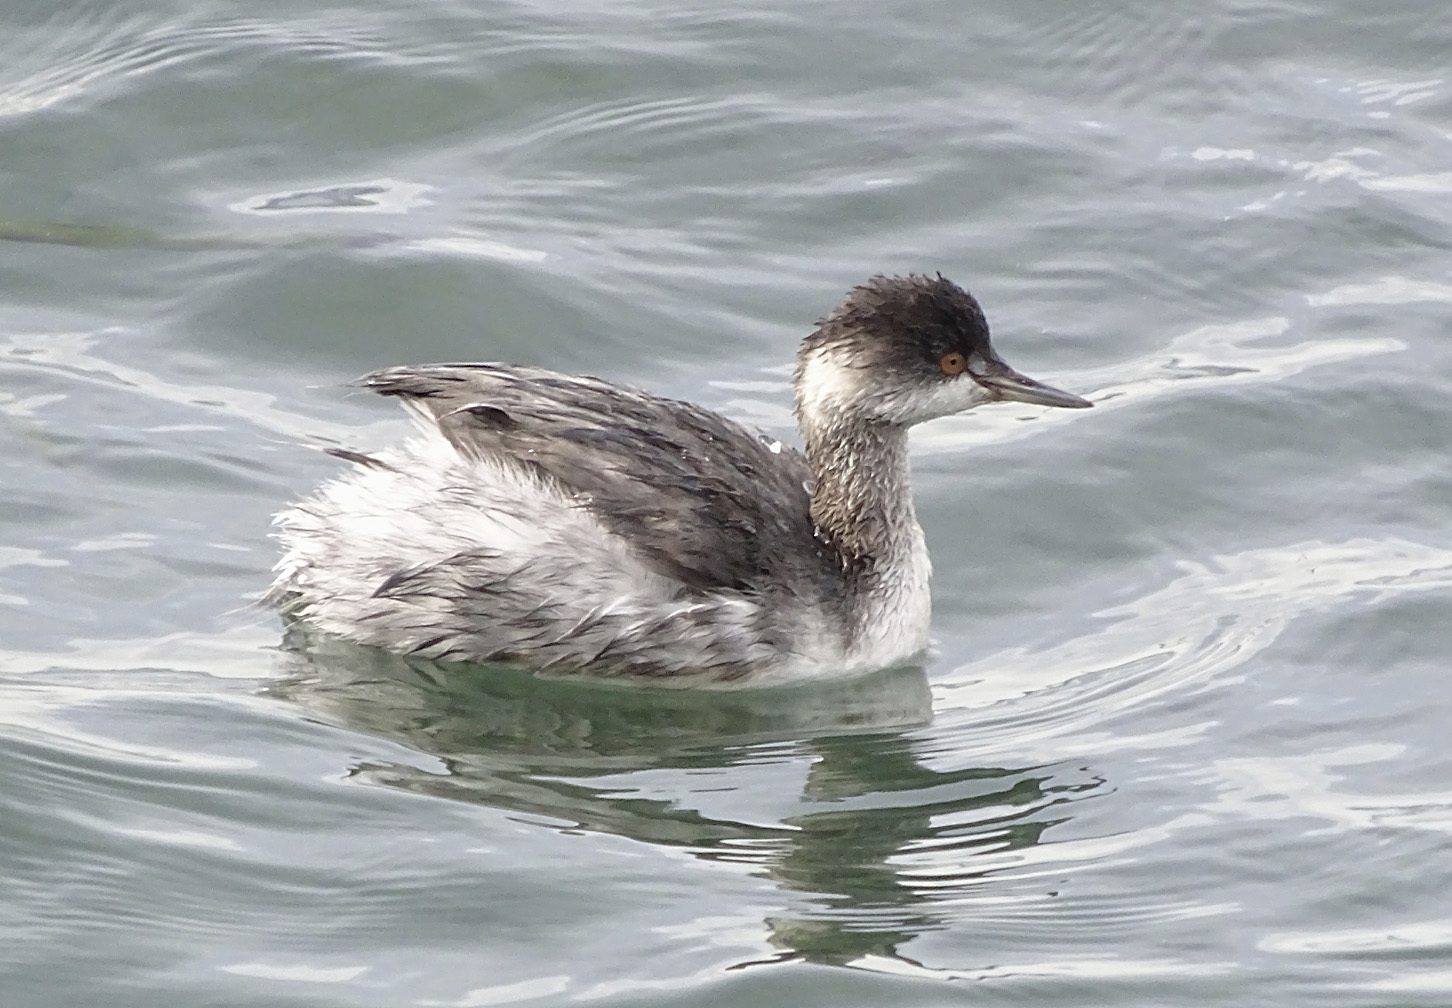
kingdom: Animalia
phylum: Chordata
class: Aves
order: Podicipediformes
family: Podicipedidae
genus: Podiceps
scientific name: Podiceps nigricollis
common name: Black-necked grebe
